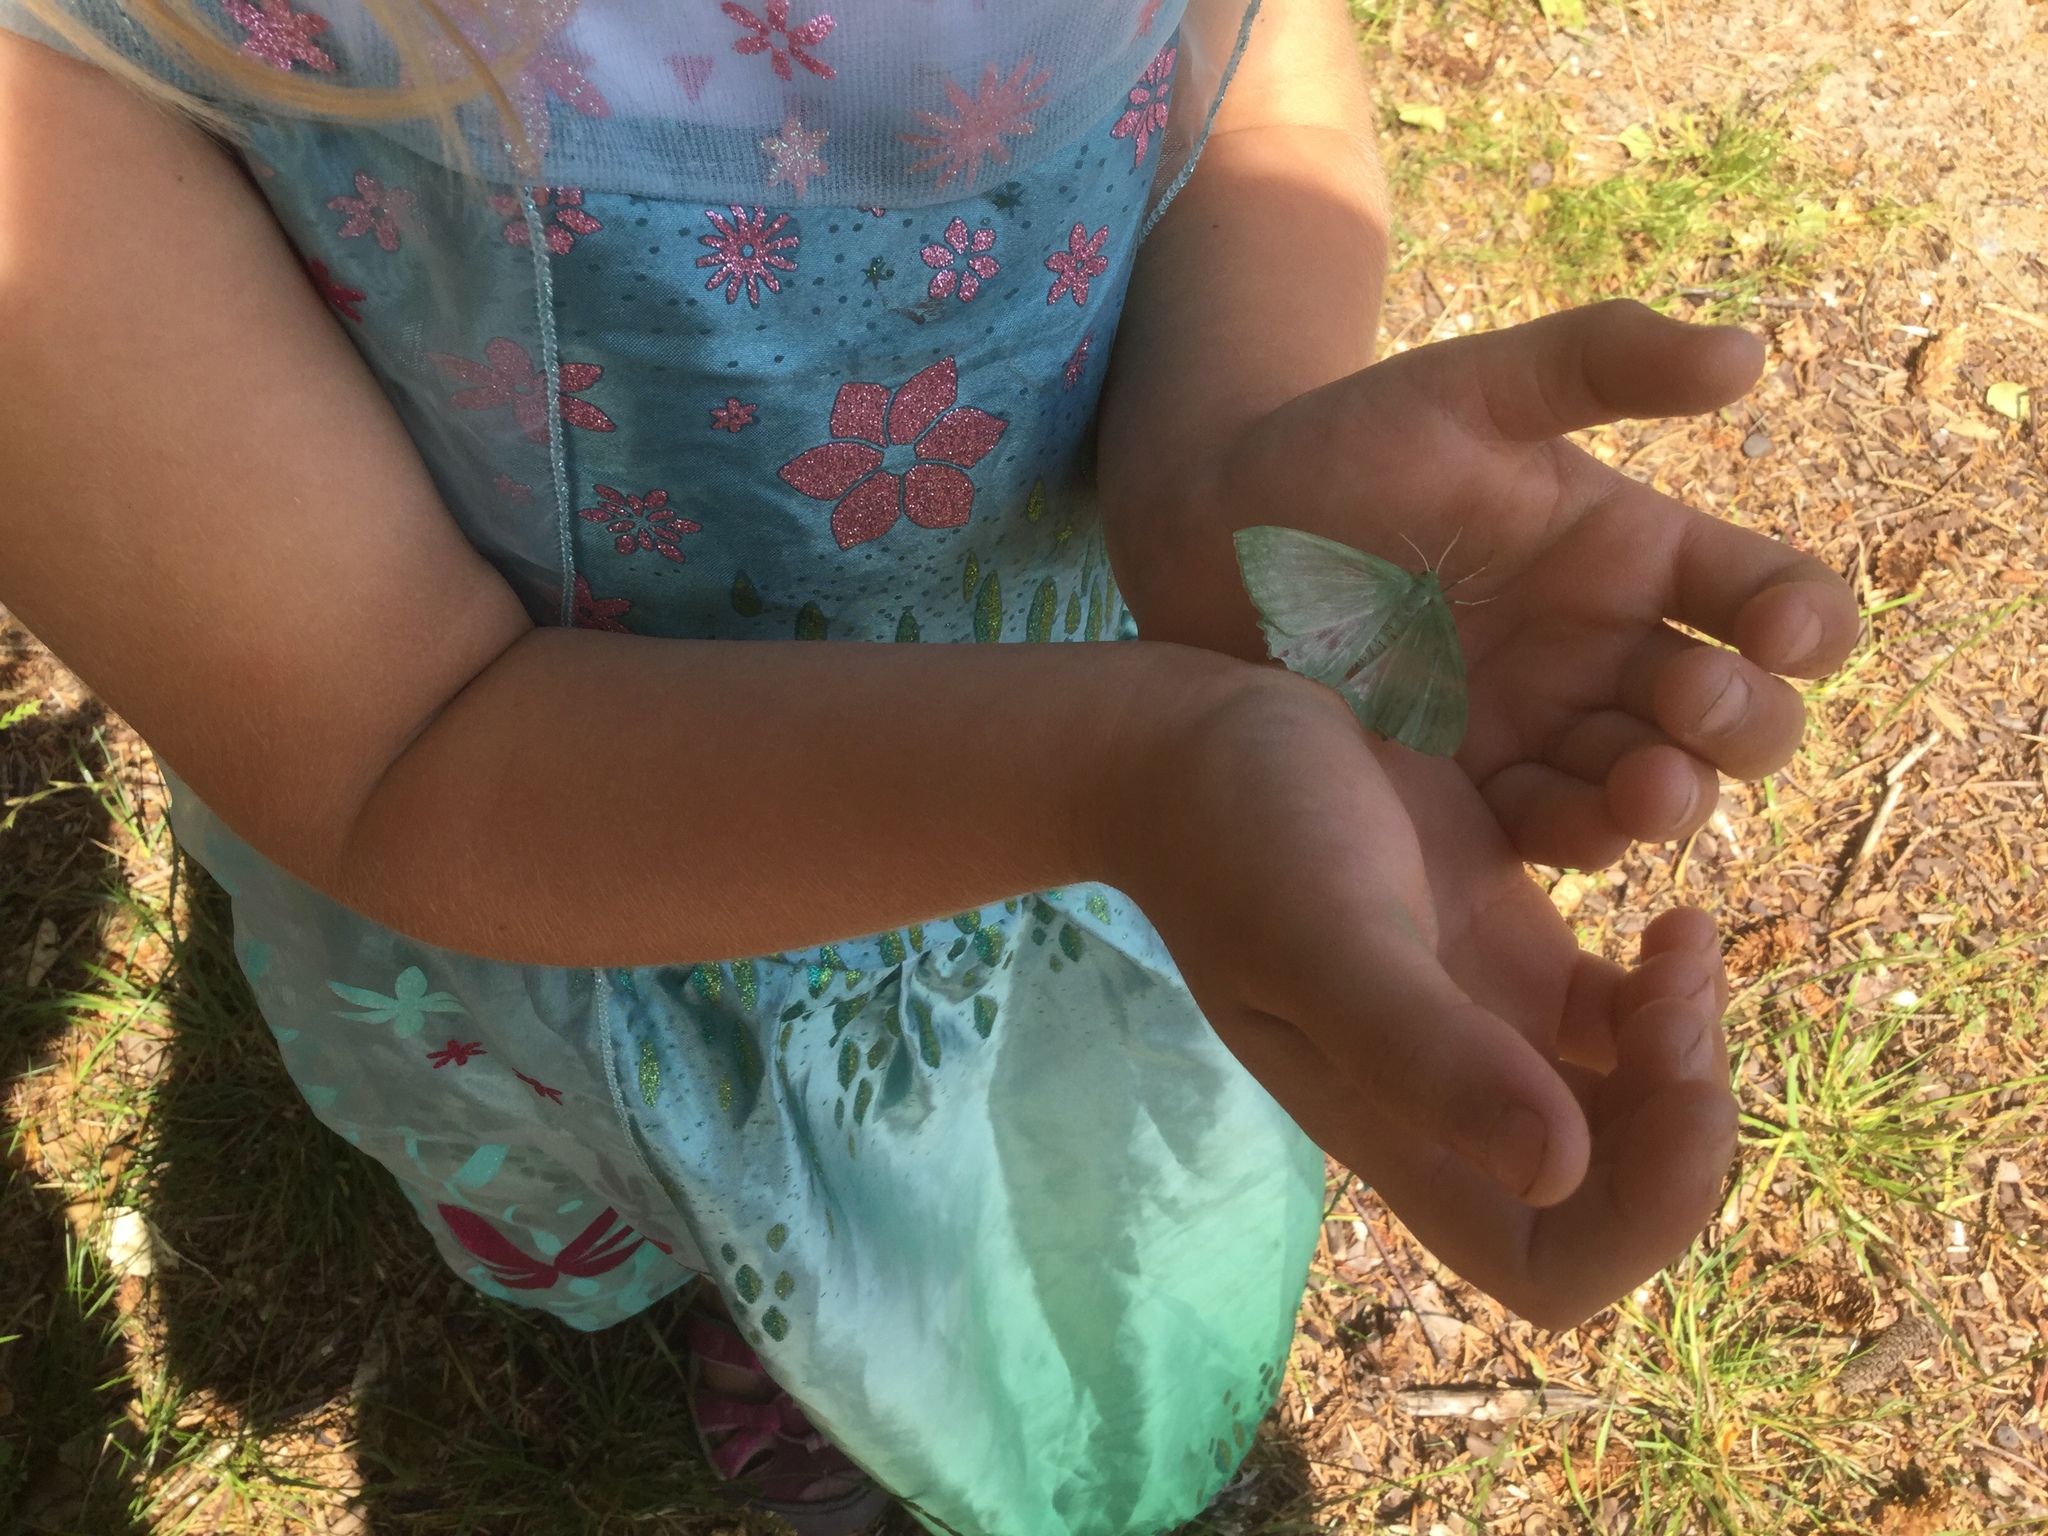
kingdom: Animalia
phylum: Arthropoda
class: Insecta
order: Lepidoptera
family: Geometridae
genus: Geometra
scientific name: Geometra papilionaria
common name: Large emerald
